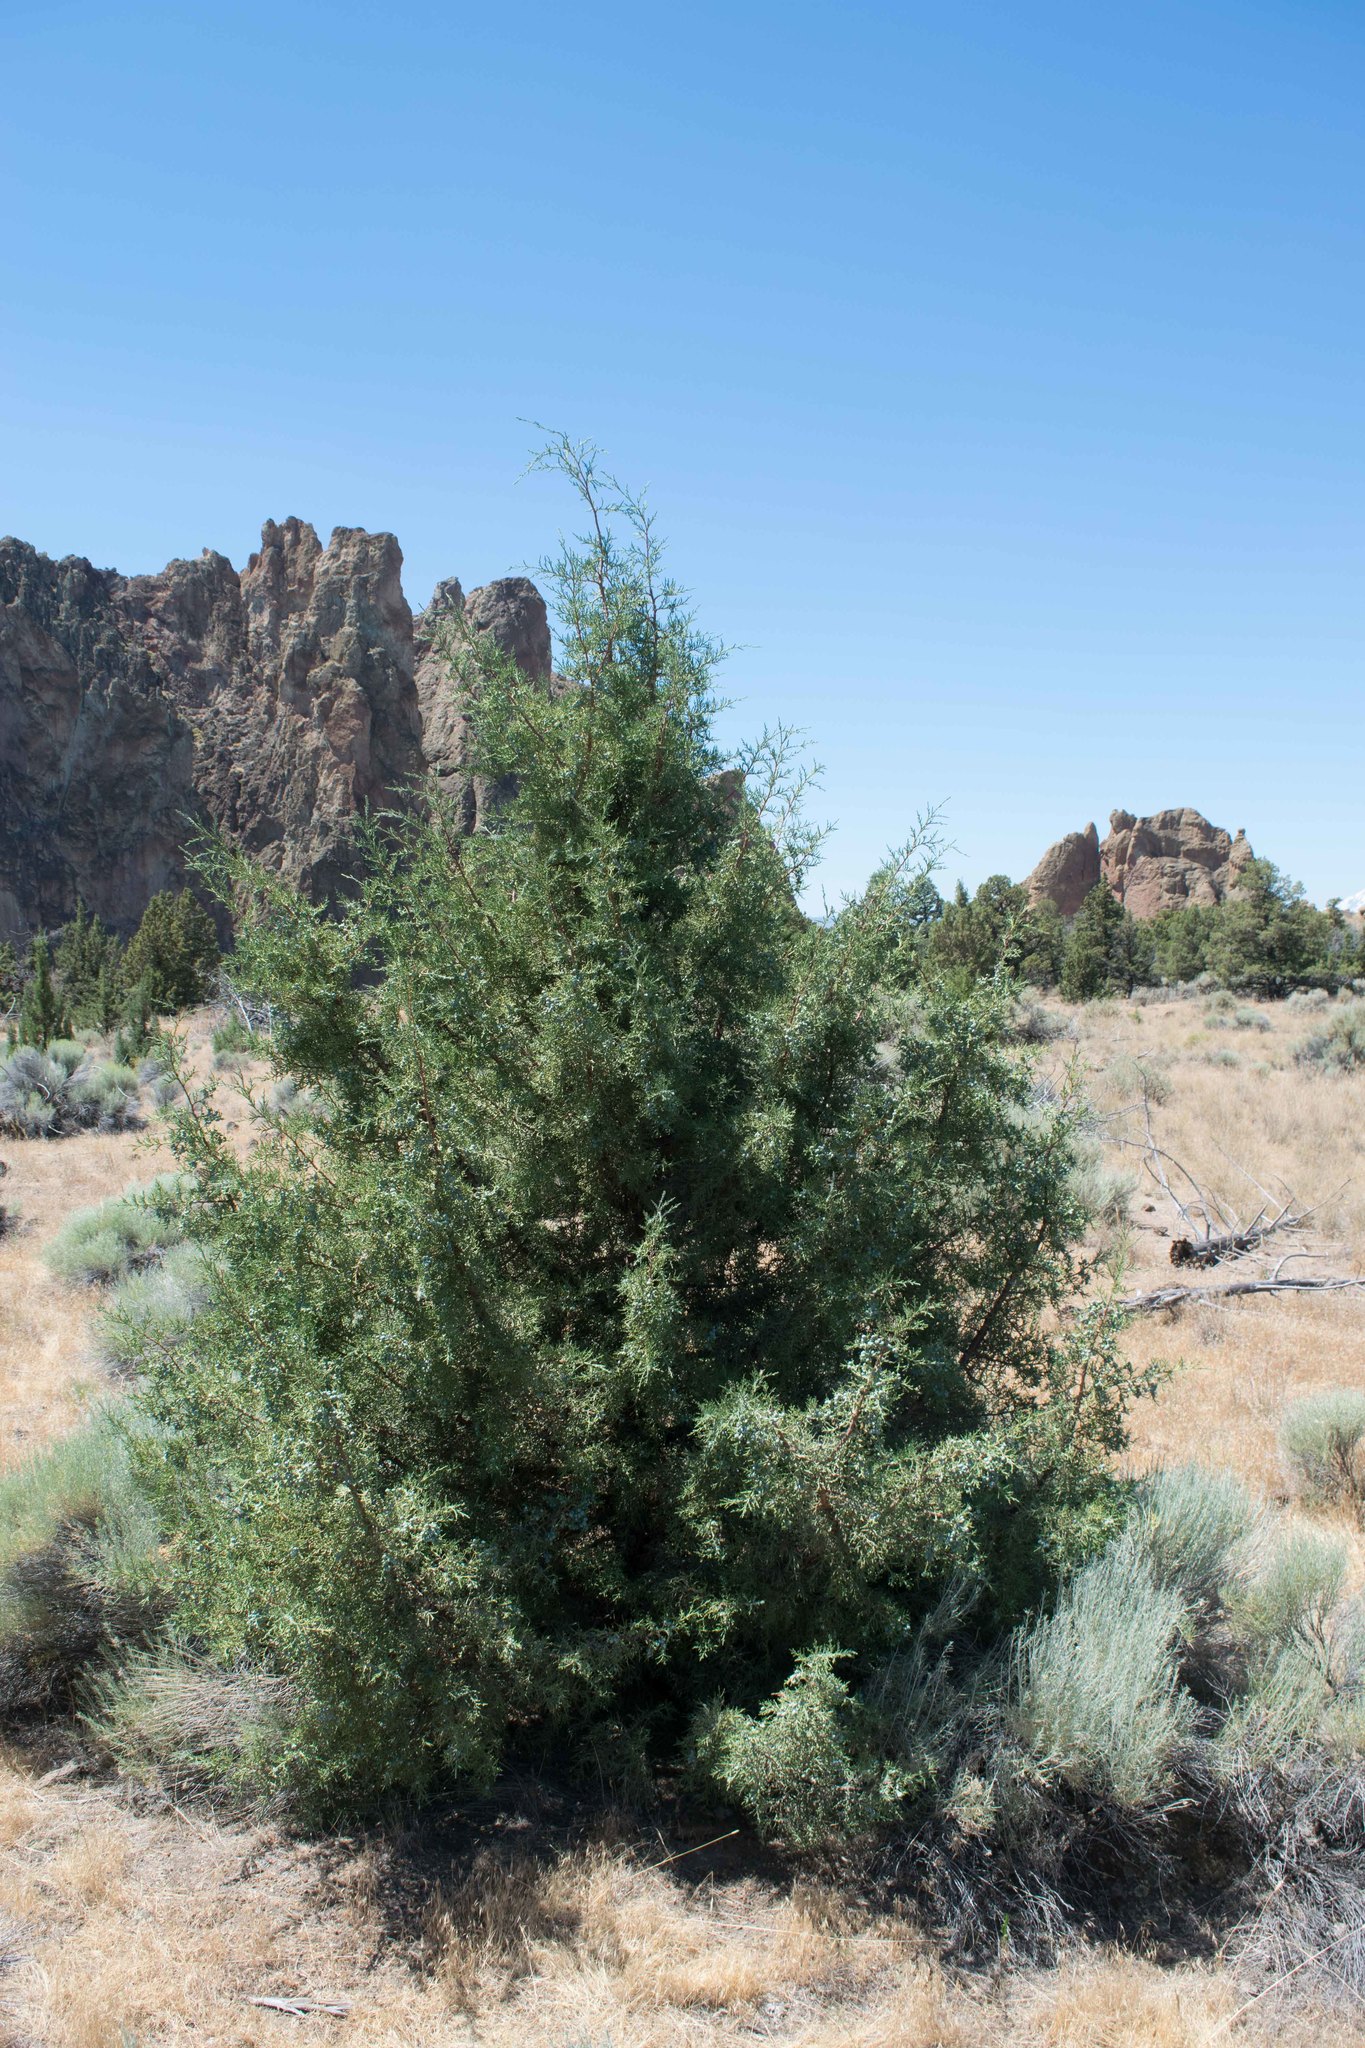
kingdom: Plantae
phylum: Tracheophyta
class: Pinopsida
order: Pinales
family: Cupressaceae
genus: Juniperus
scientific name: Juniperus occidentalis
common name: Western juniper
